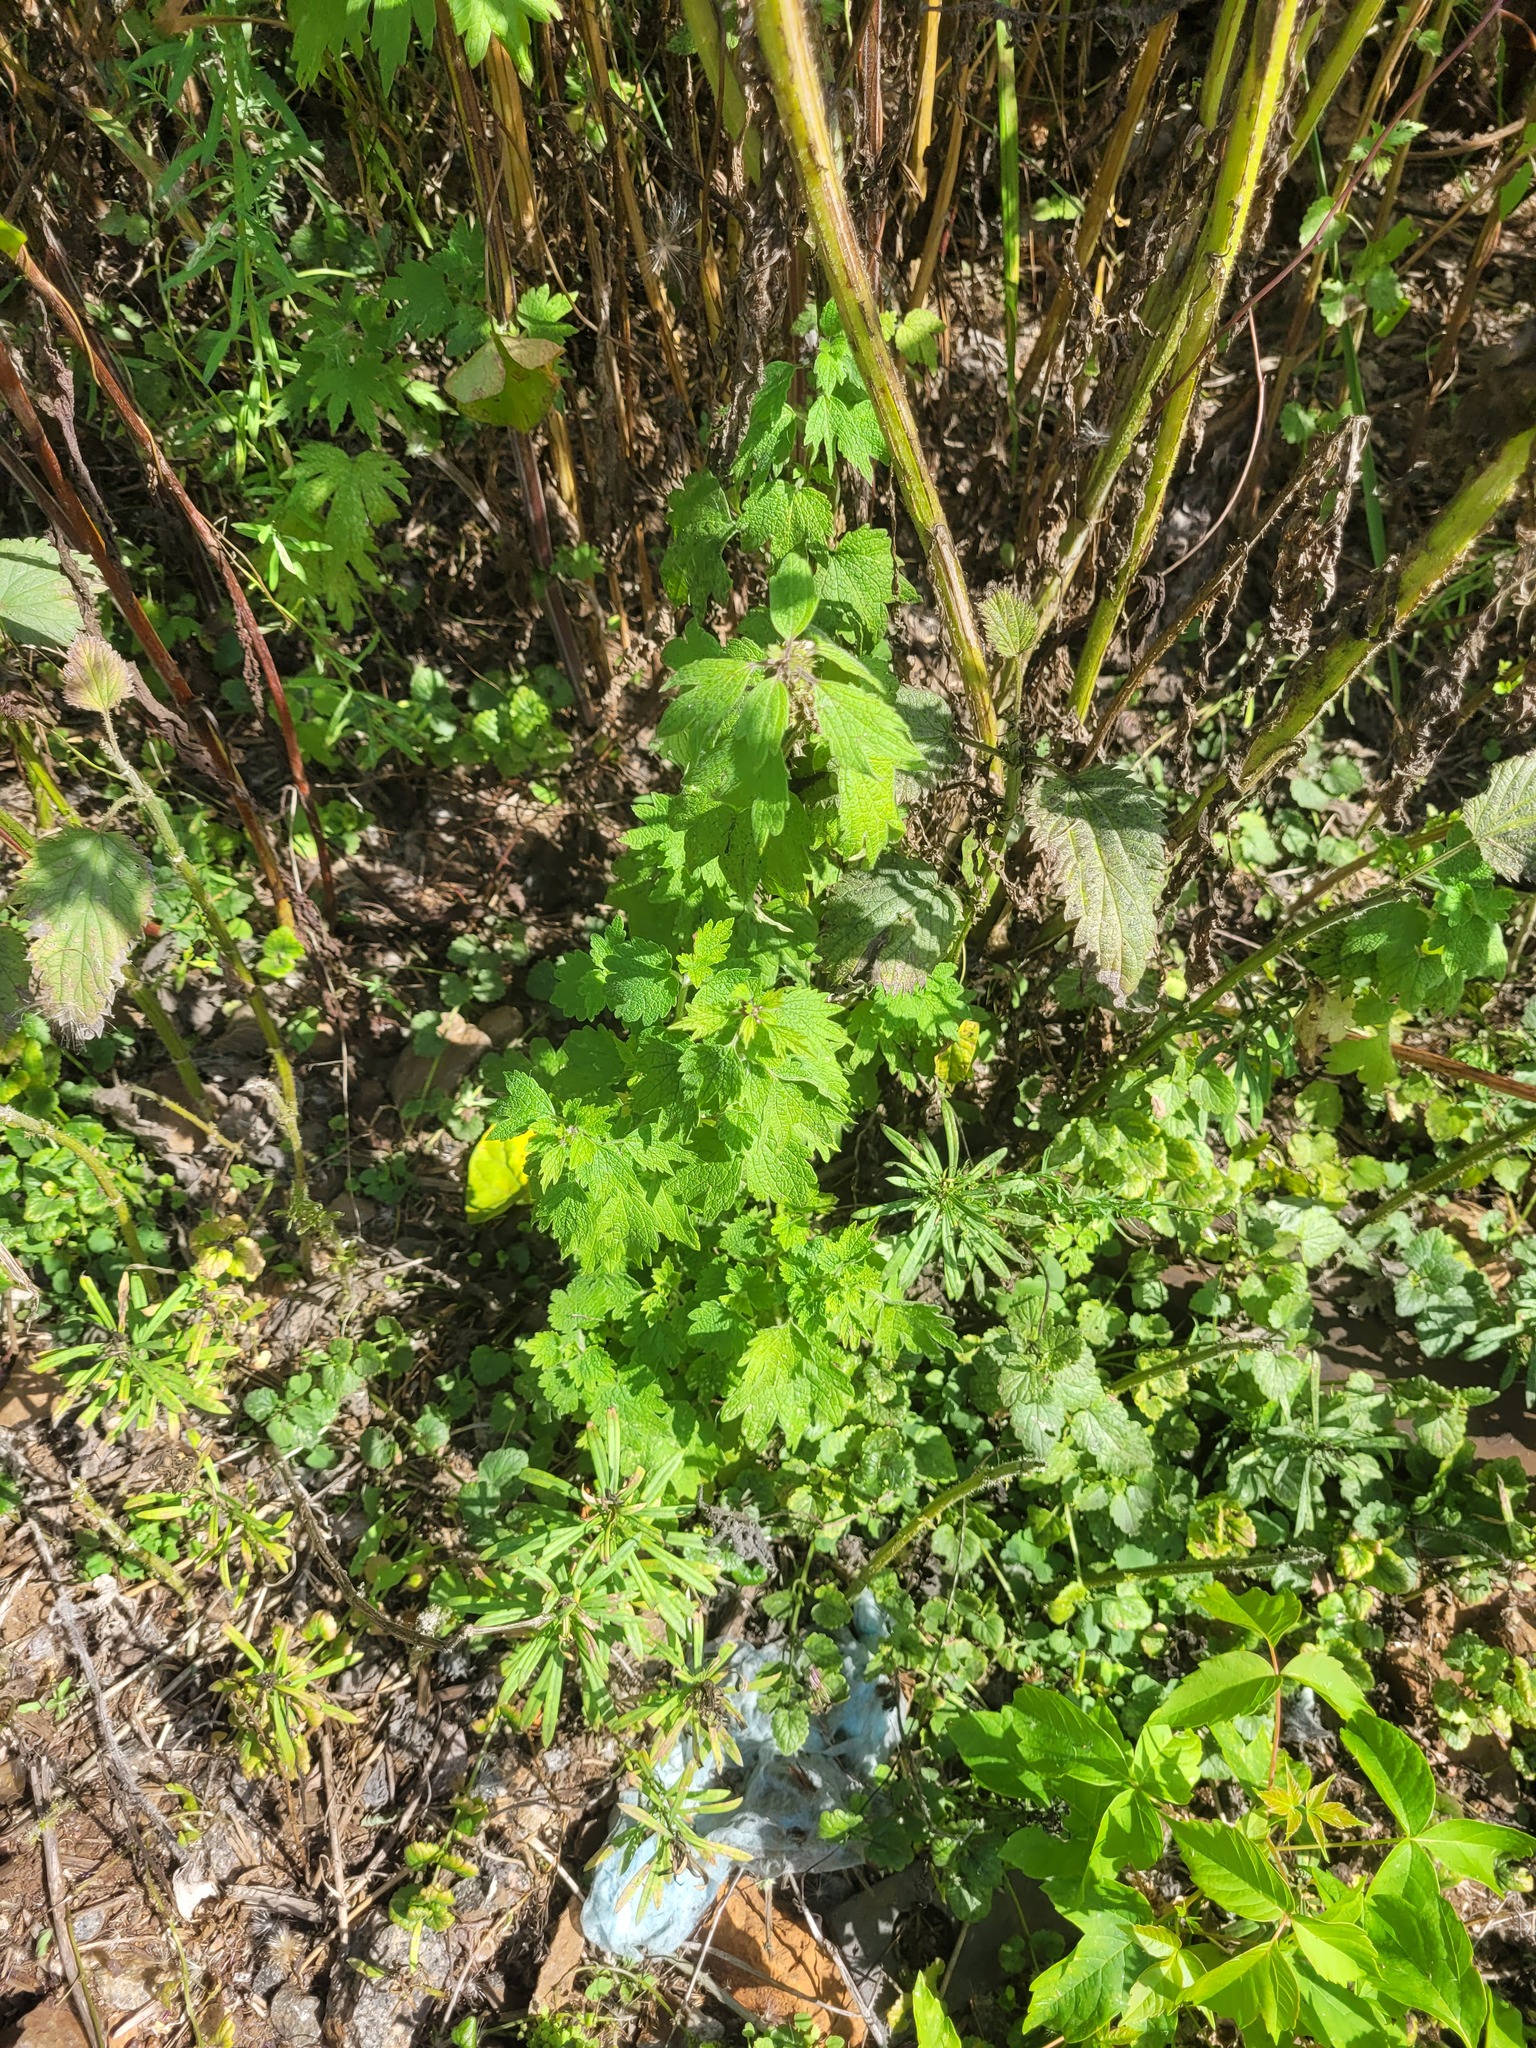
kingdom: Plantae
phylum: Tracheophyta
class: Magnoliopsida
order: Lamiales
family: Lamiaceae
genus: Leonurus
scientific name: Leonurus quinquelobatus
